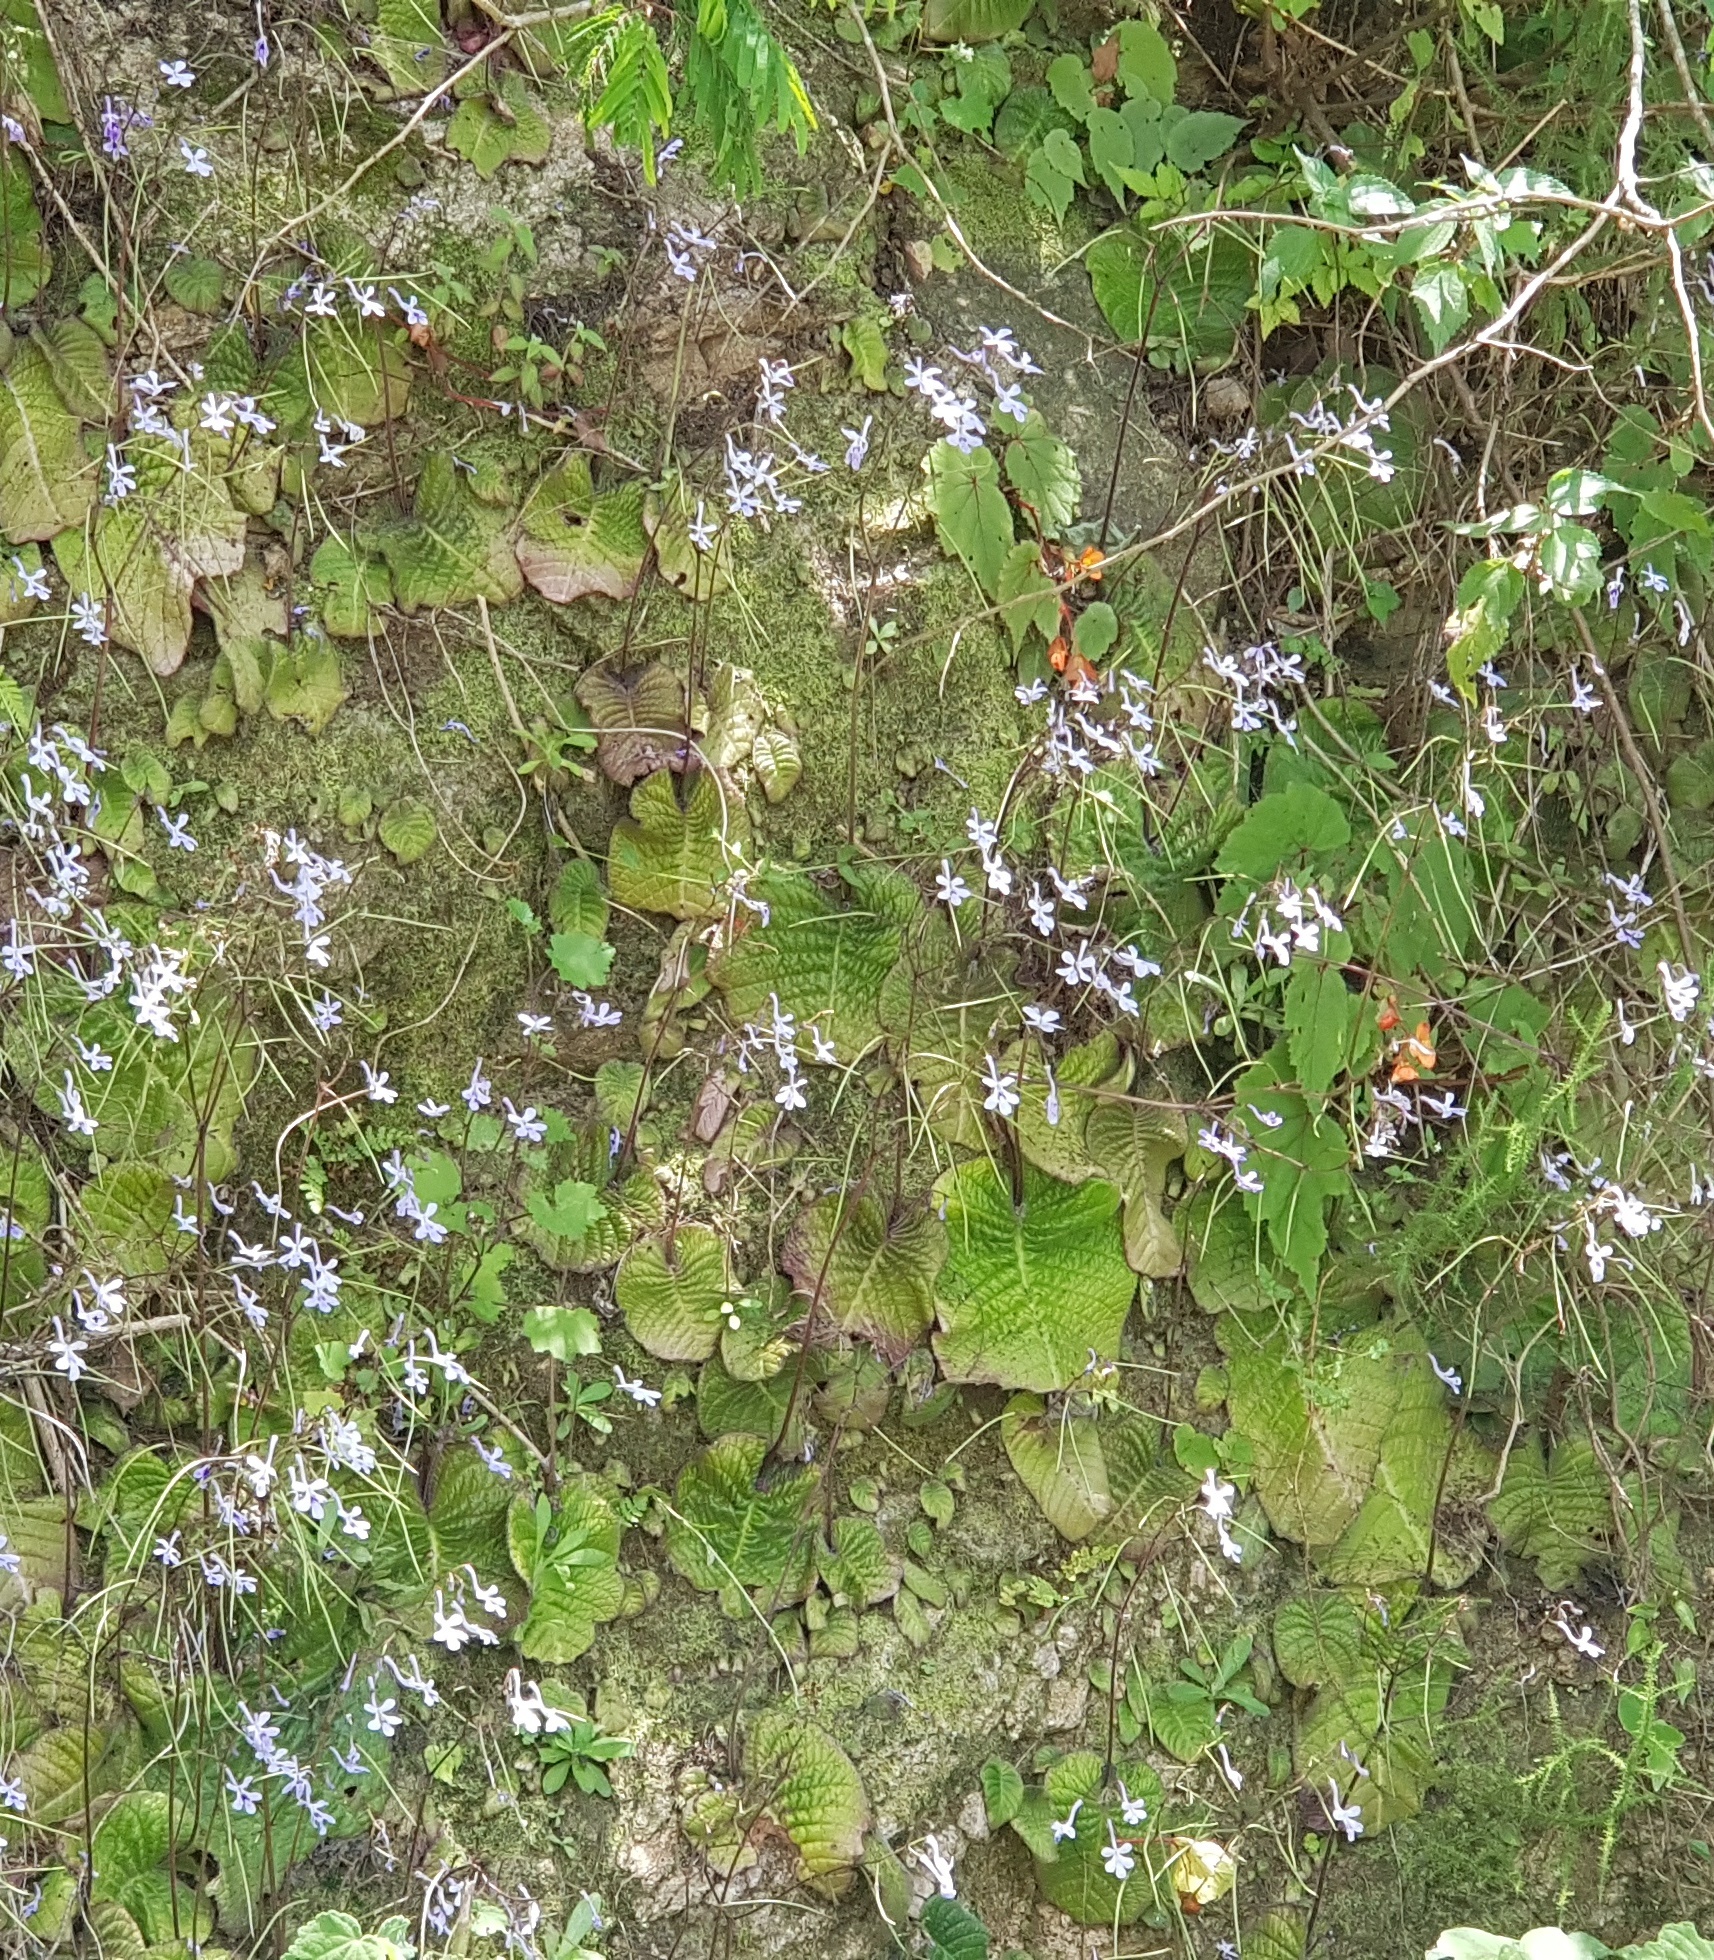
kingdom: Plantae
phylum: Tracheophyta
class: Magnoliopsida
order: Lamiales
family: Gesneriaceae
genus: Streptocarpus
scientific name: Streptocarpus haygarthii
